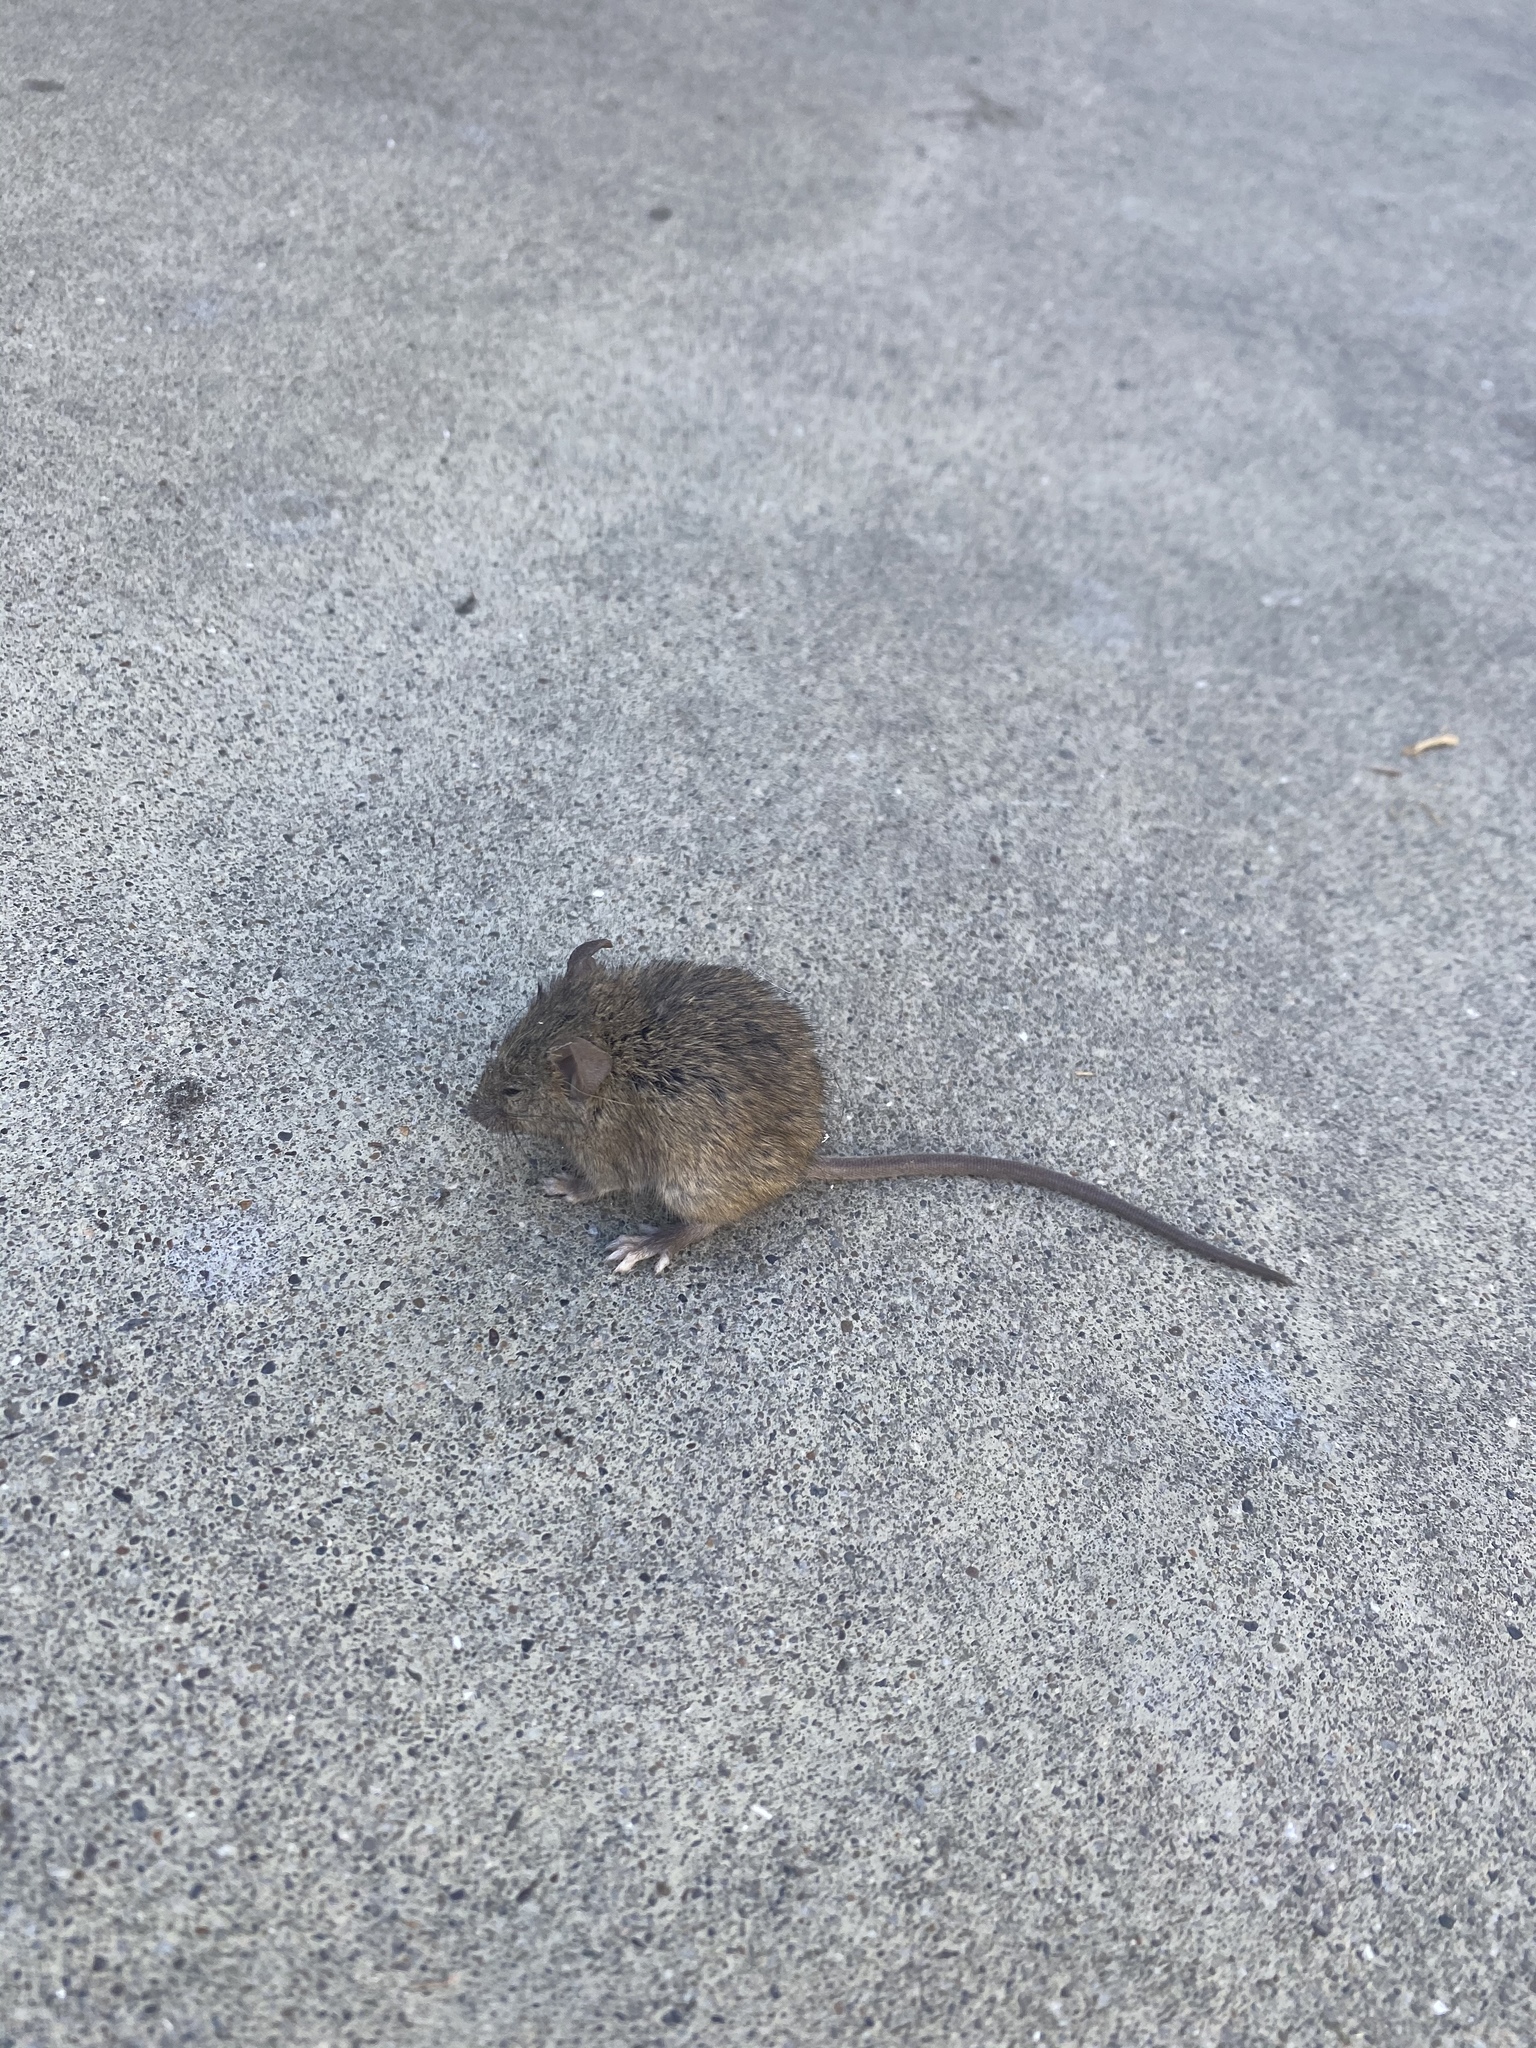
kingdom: Animalia
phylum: Chordata
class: Mammalia
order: Rodentia
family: Muridae
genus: Mus
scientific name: Mus musculus
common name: House mouse
